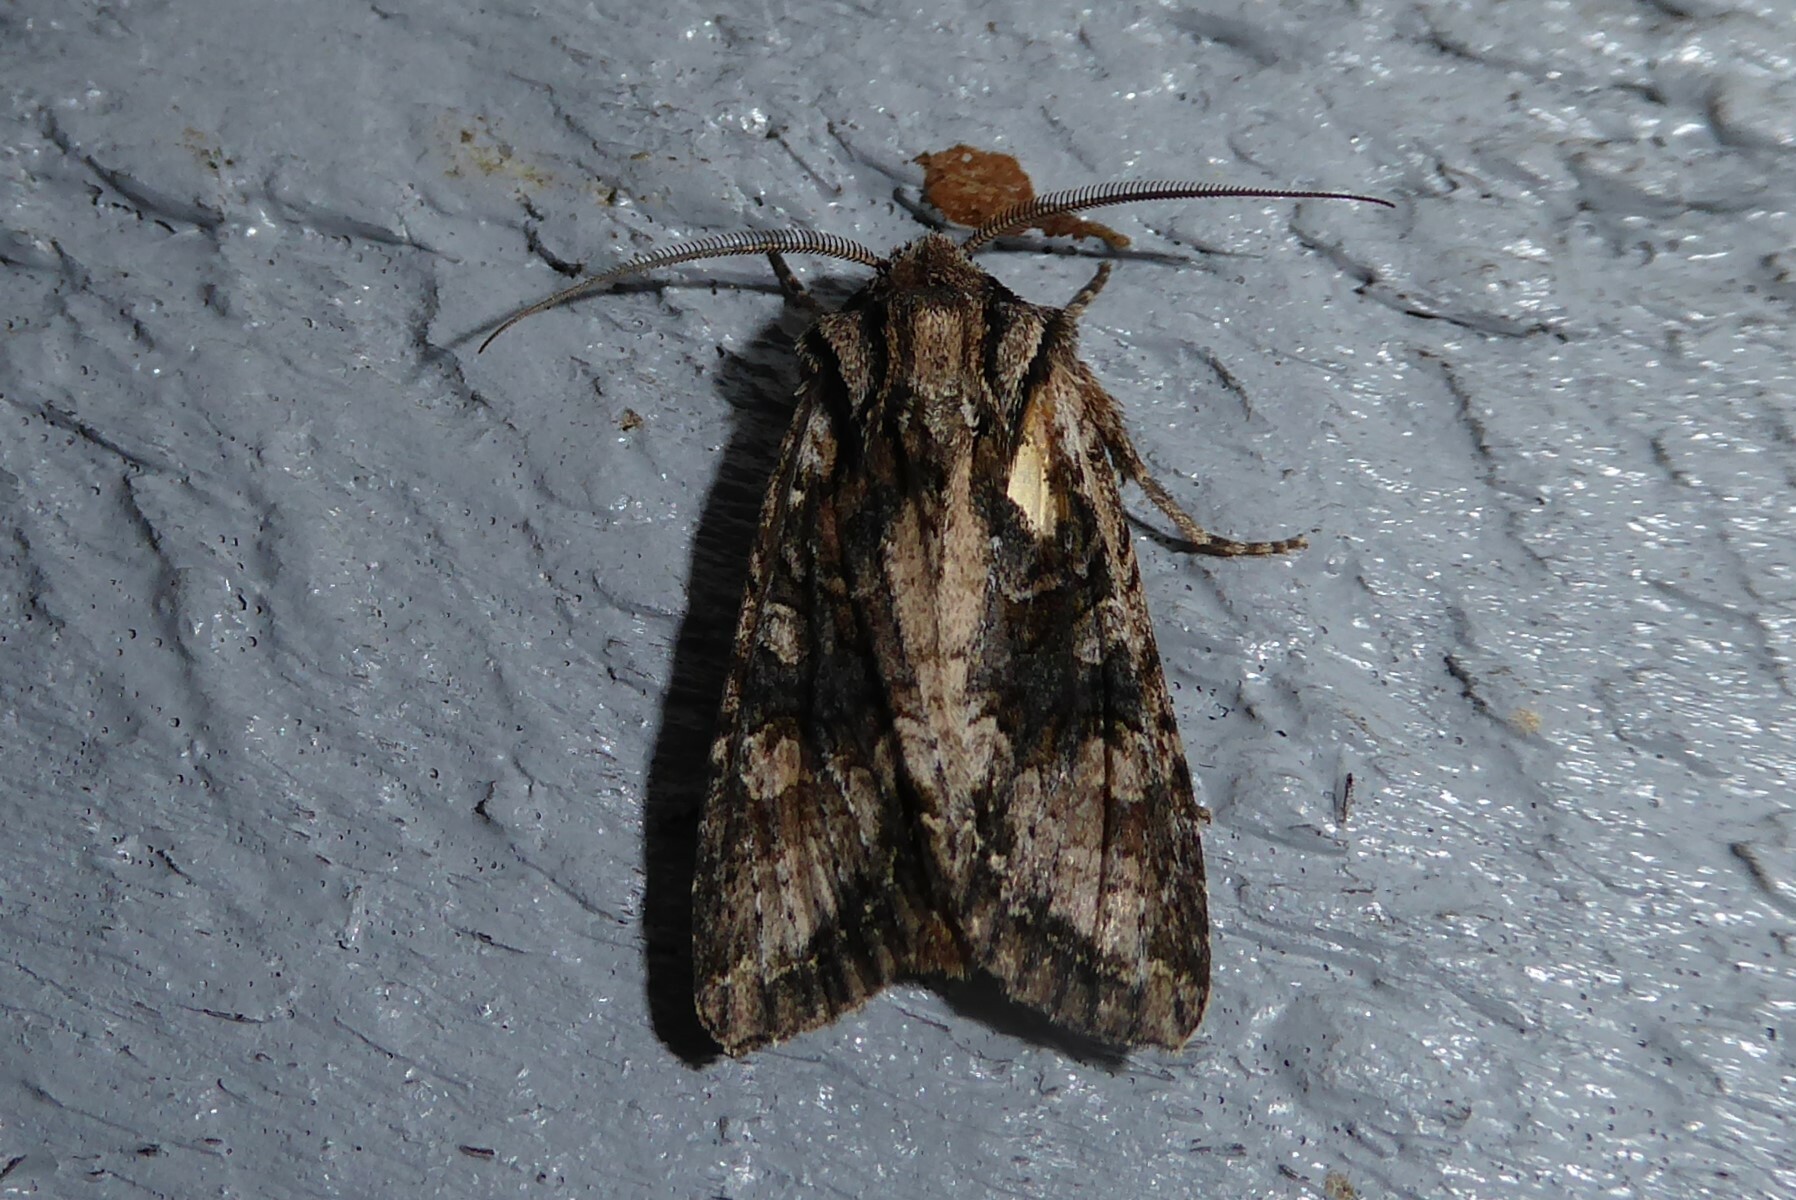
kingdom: Animalia
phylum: Arthropoda
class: Insecta
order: Lepidoptera
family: Noctuidae
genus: Ichneutica
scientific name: Ichneutica mutans
